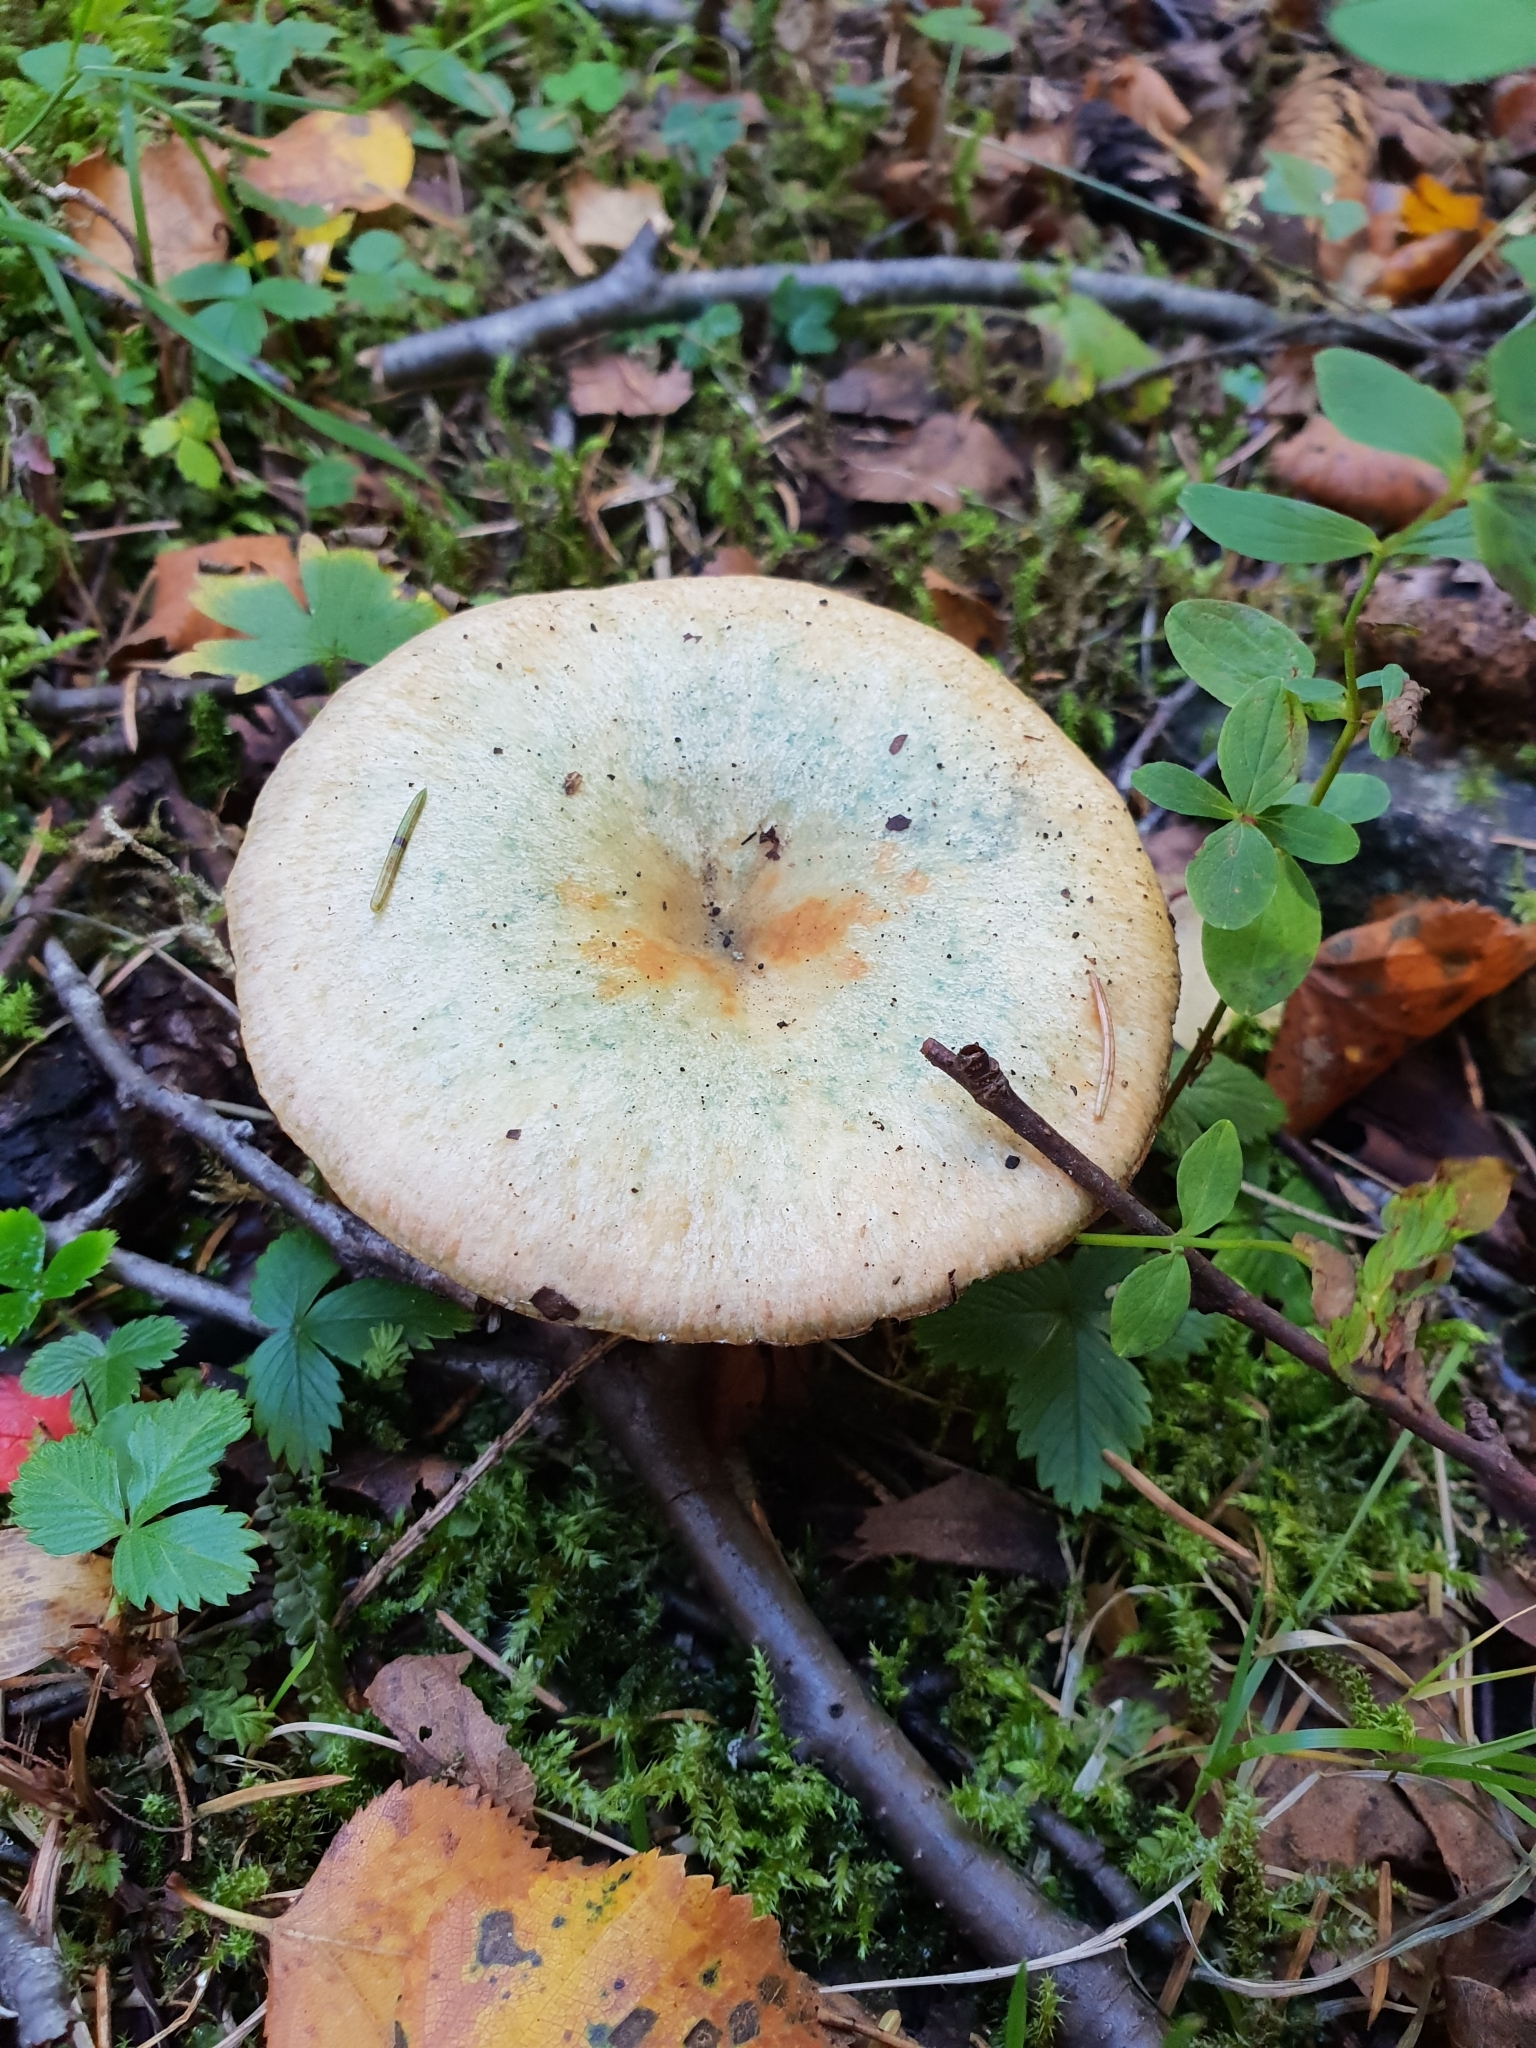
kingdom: Fungi
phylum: Basidiomycota
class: Agaricomycetes
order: Russulales
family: Russulaceae
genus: Lactarius
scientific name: Lactarius deterrimus
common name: False saffron milkcap
